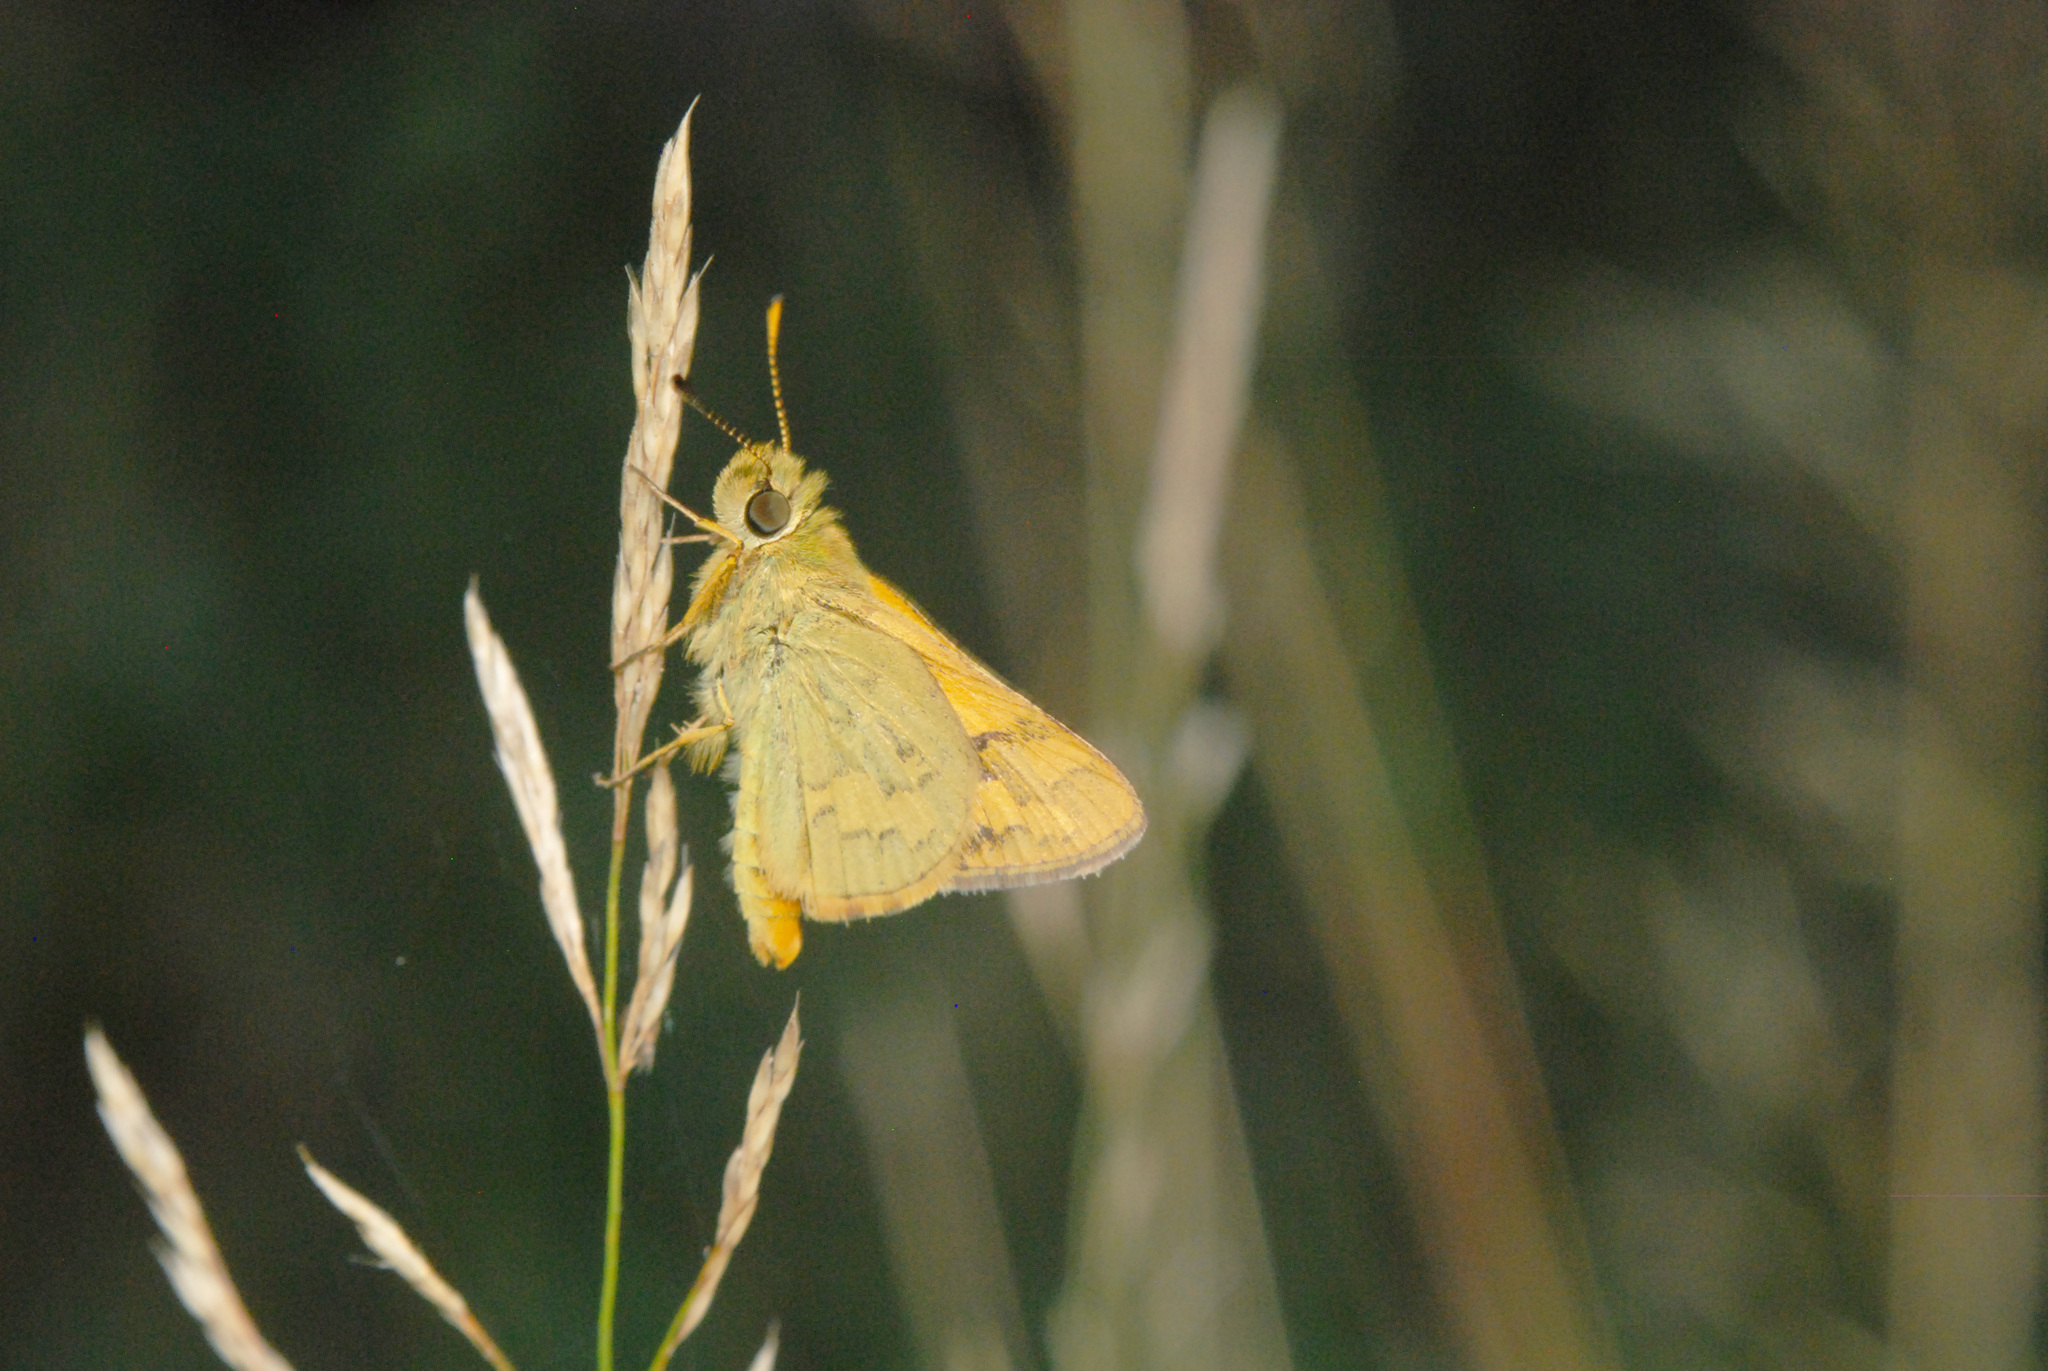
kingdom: Animalia
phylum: Arthropoda
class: Insecta
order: Lepidoptera
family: Hesperiidae
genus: Ocybadistes
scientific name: Ocybadistes walkeri
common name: Yellow-banded dart
